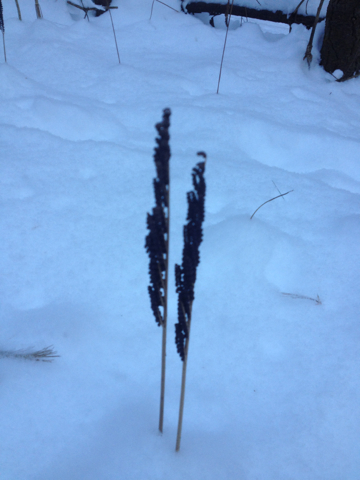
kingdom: Plantae
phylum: Tracheophyta
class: Polypodiopsida
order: Polypodiales
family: Onocleaceae
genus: Onoclea
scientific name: Onoclea sensibilis
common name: Sensitive fern
